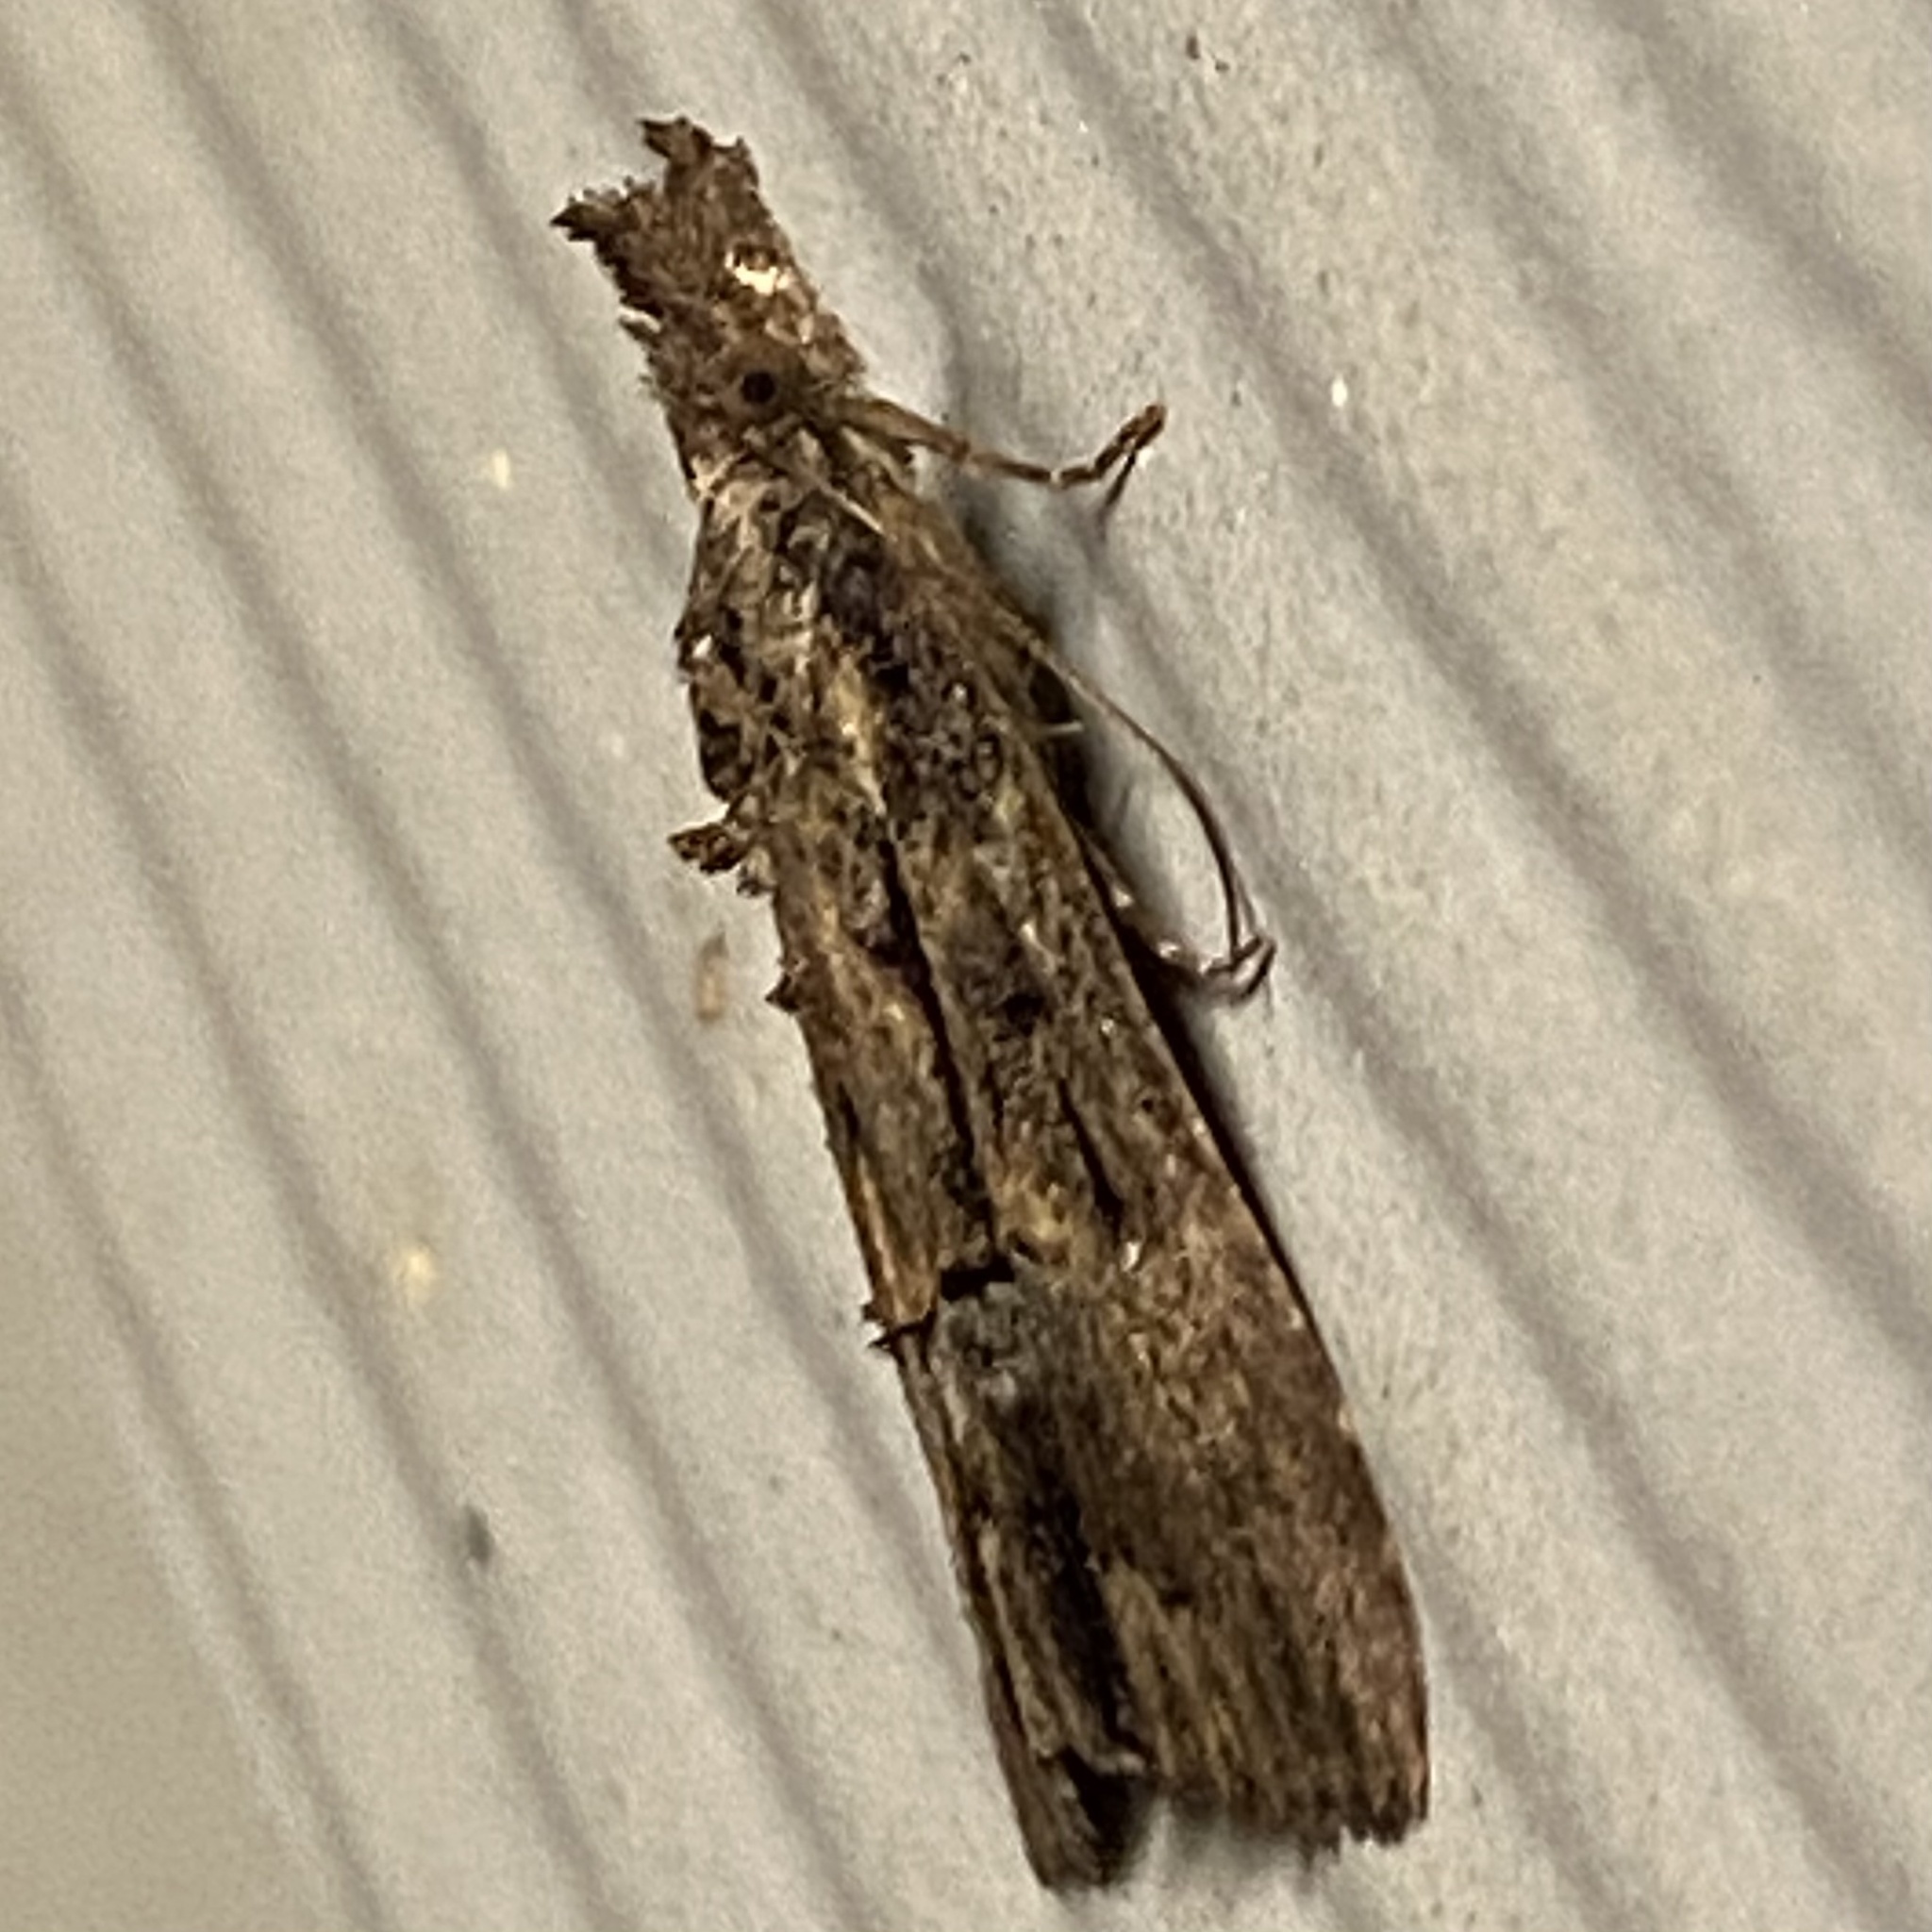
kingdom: Animalia
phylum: Arthropoda
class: Insecta
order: Lepidoptera
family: Erebidae
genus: Hypena
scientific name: Hypena scabra
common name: Green cloverworm
